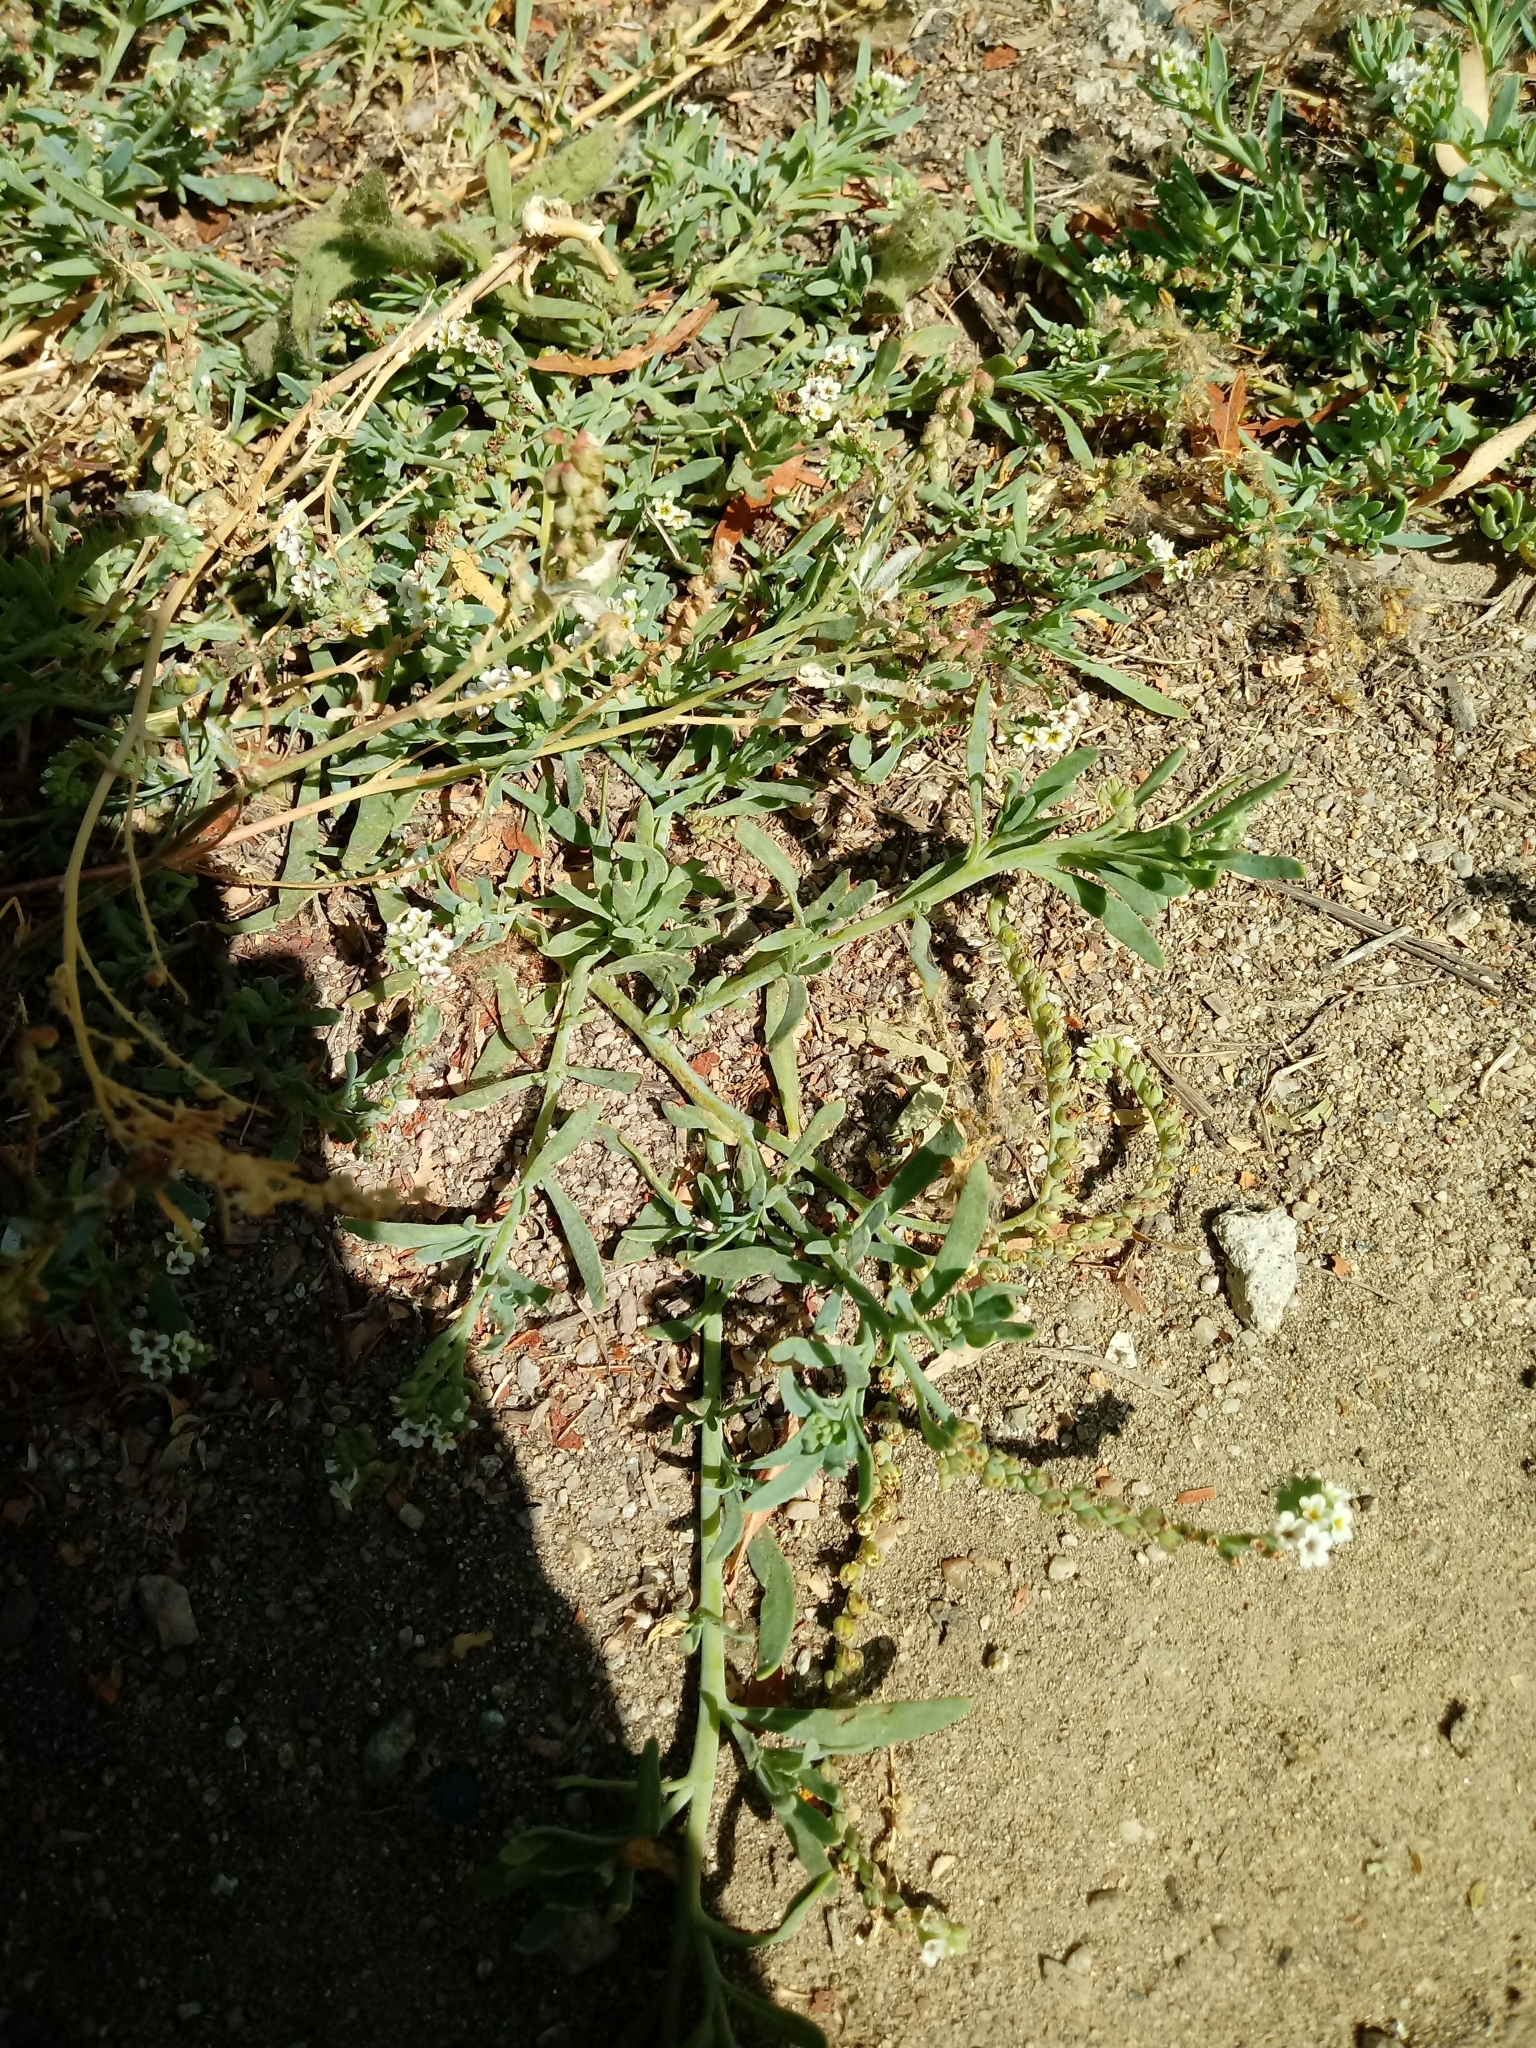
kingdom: Plantae
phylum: Tracheophyta
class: Magnoliopsida
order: Boraginales
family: Heliotropiaceae
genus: Heliotropium
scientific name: Heliotropium curassavicum
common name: Seaside heliotrope
